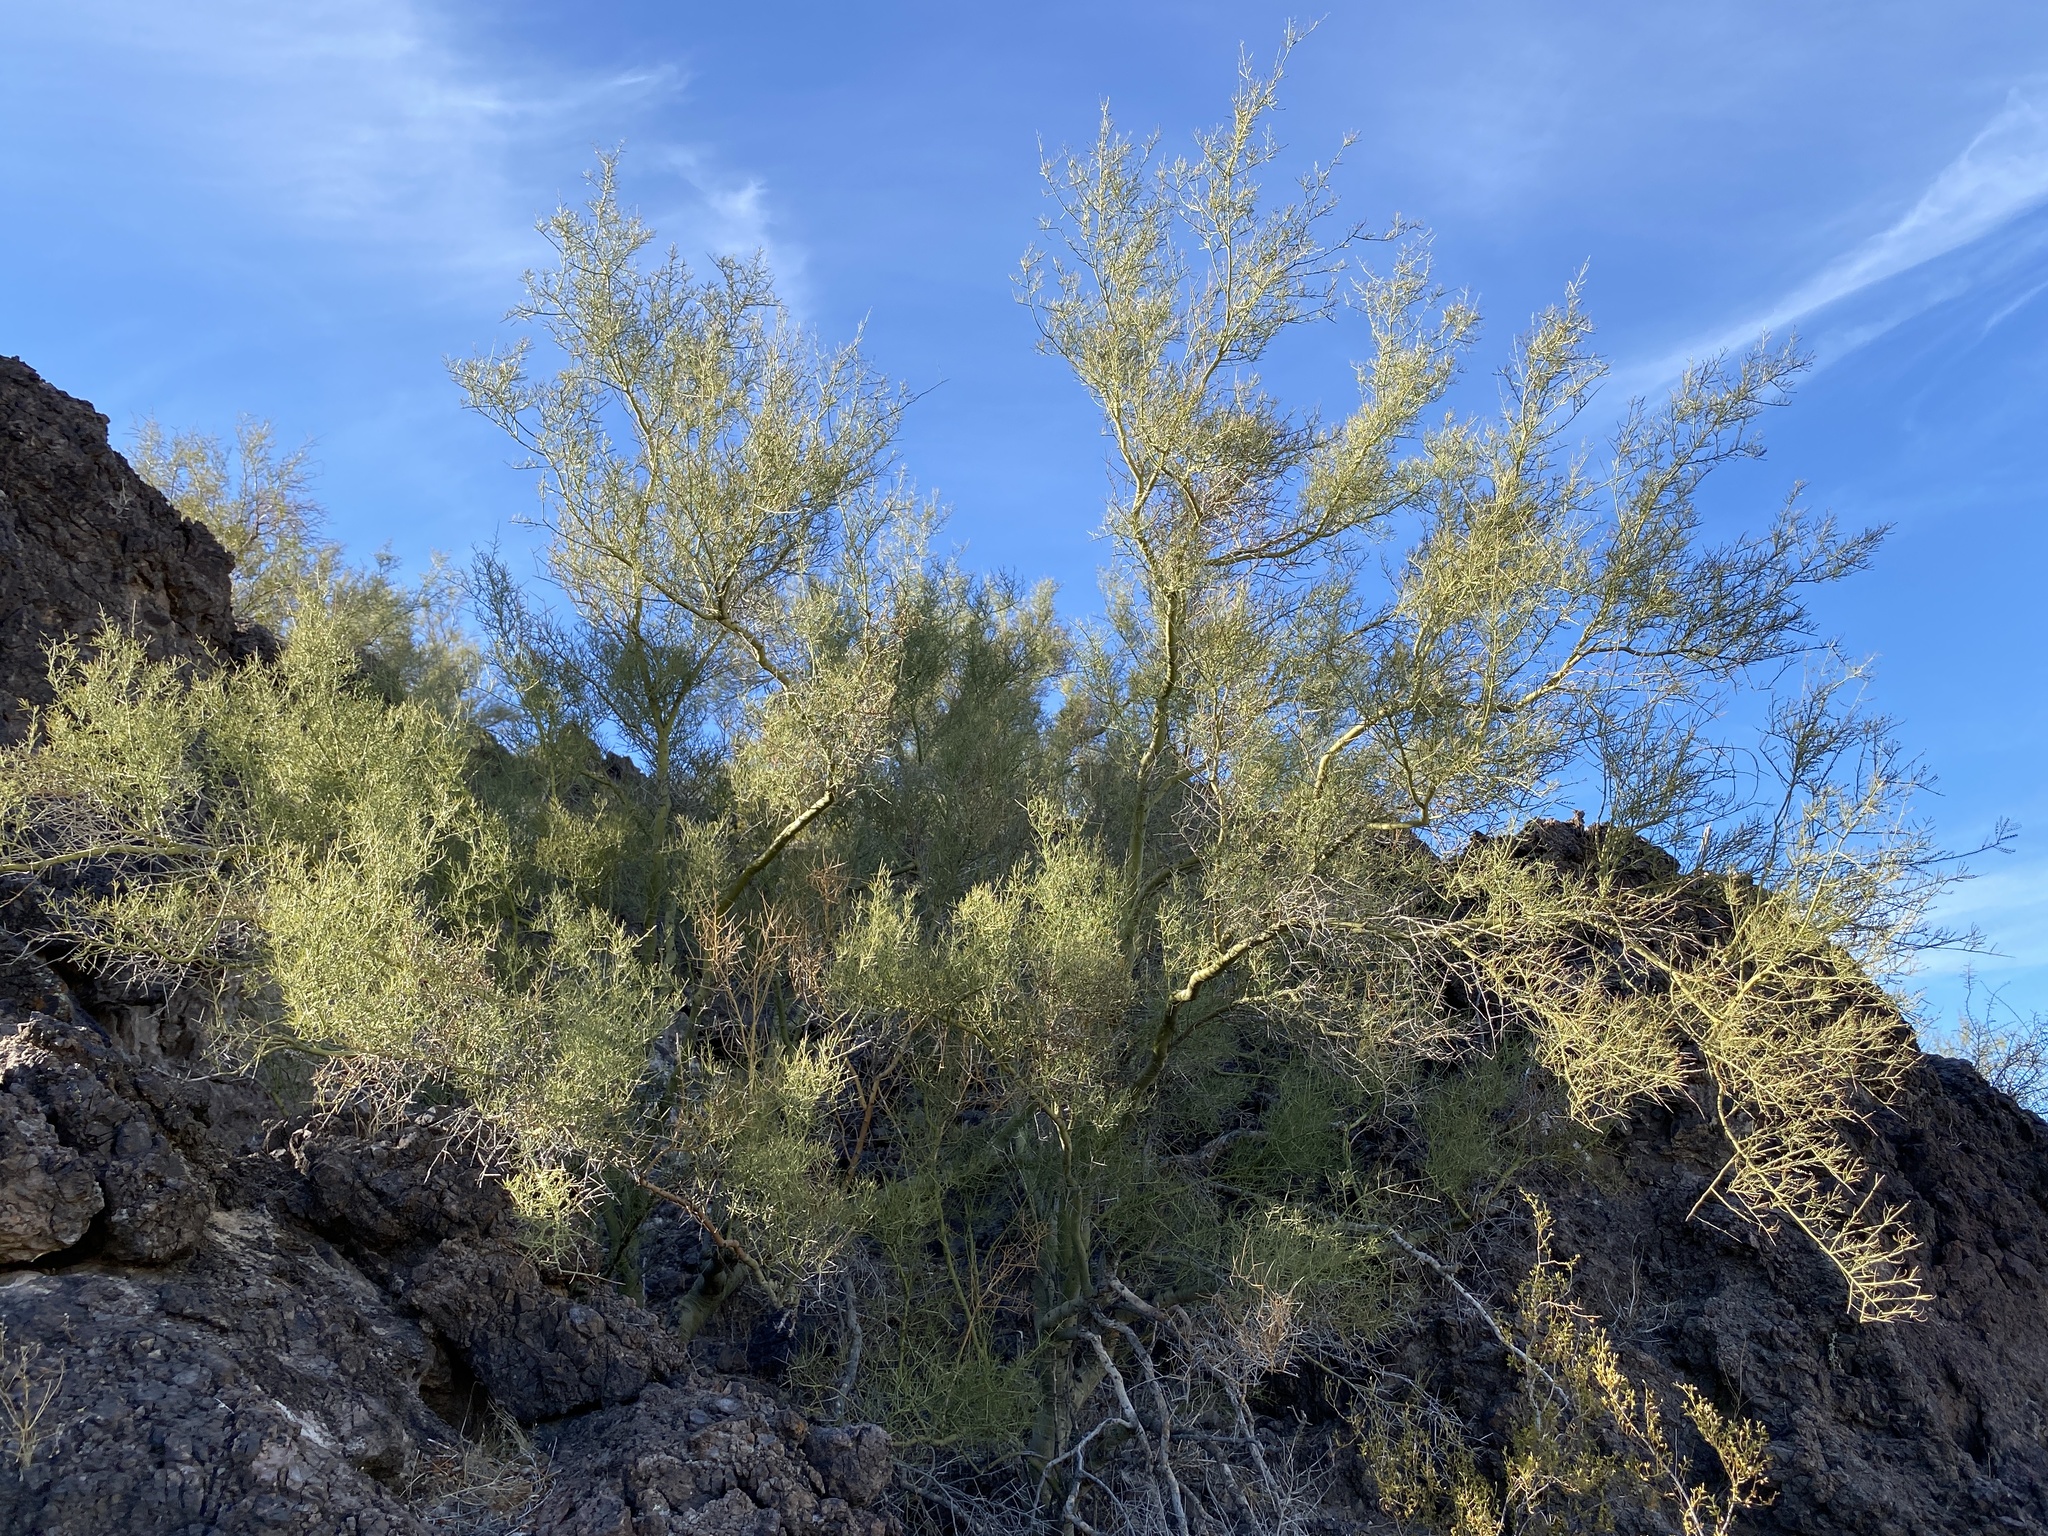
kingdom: Plantae
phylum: Tracheophyta
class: Magnoliopsida
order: Fabales
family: Fabaceae
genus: Parkinsonia
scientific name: Parkinsonia microphylla
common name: Yellow paloverde
